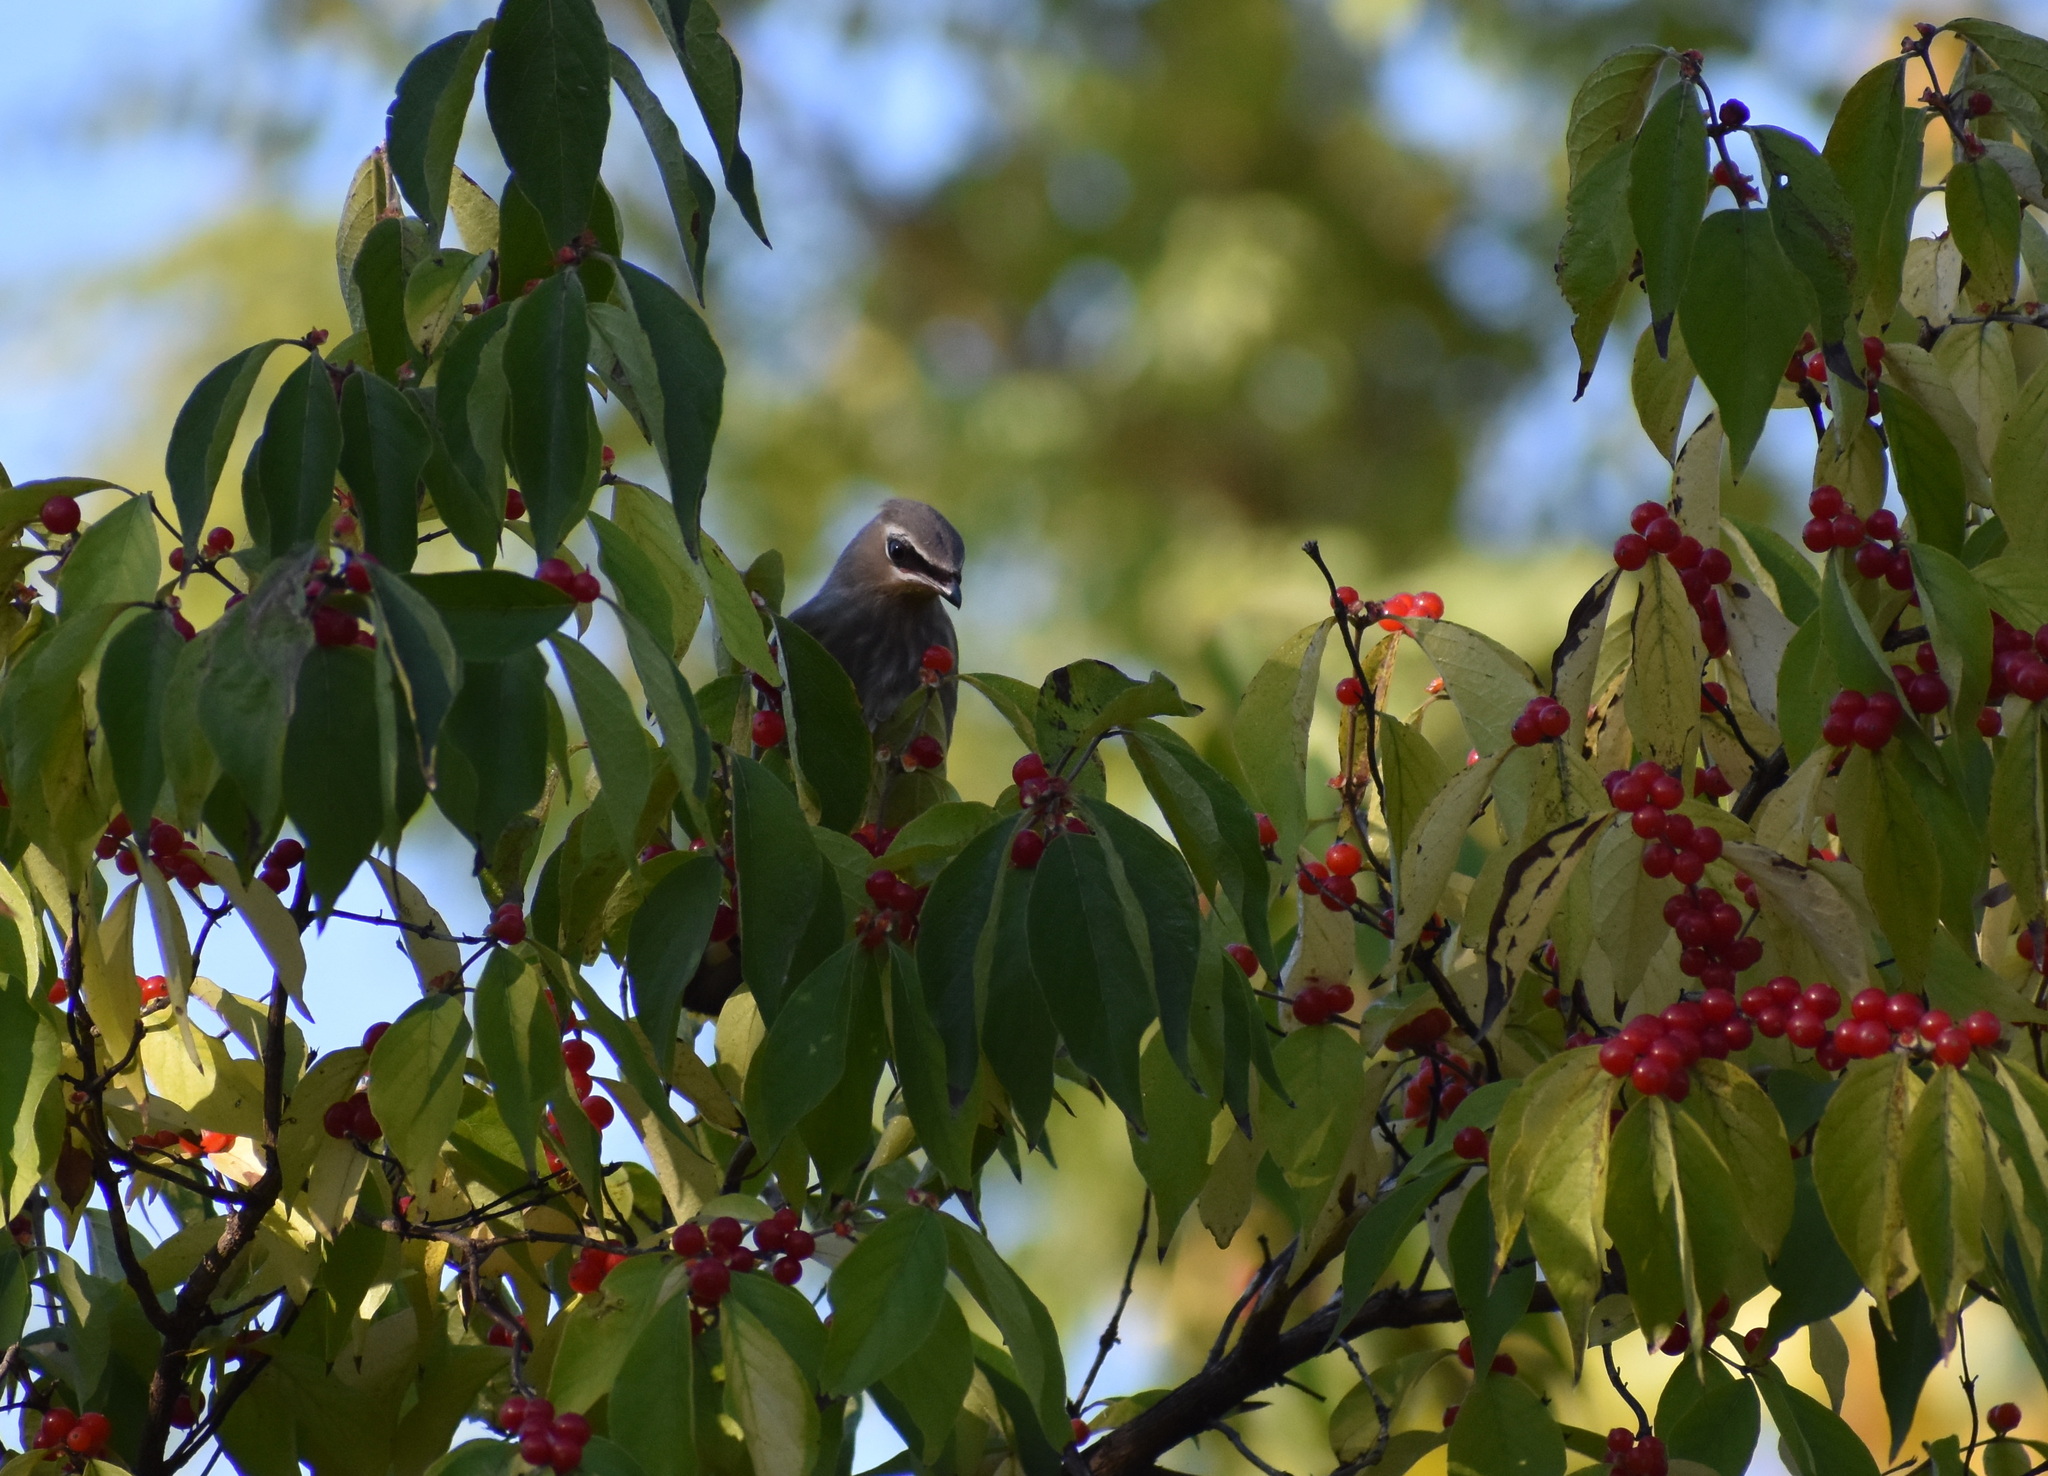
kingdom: Animalia
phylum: Chordata
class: Aves
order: Passeriformes
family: Bombycillidae
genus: Bombycilla
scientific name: Bombycilla cedrorum
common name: Cedar waxwing
